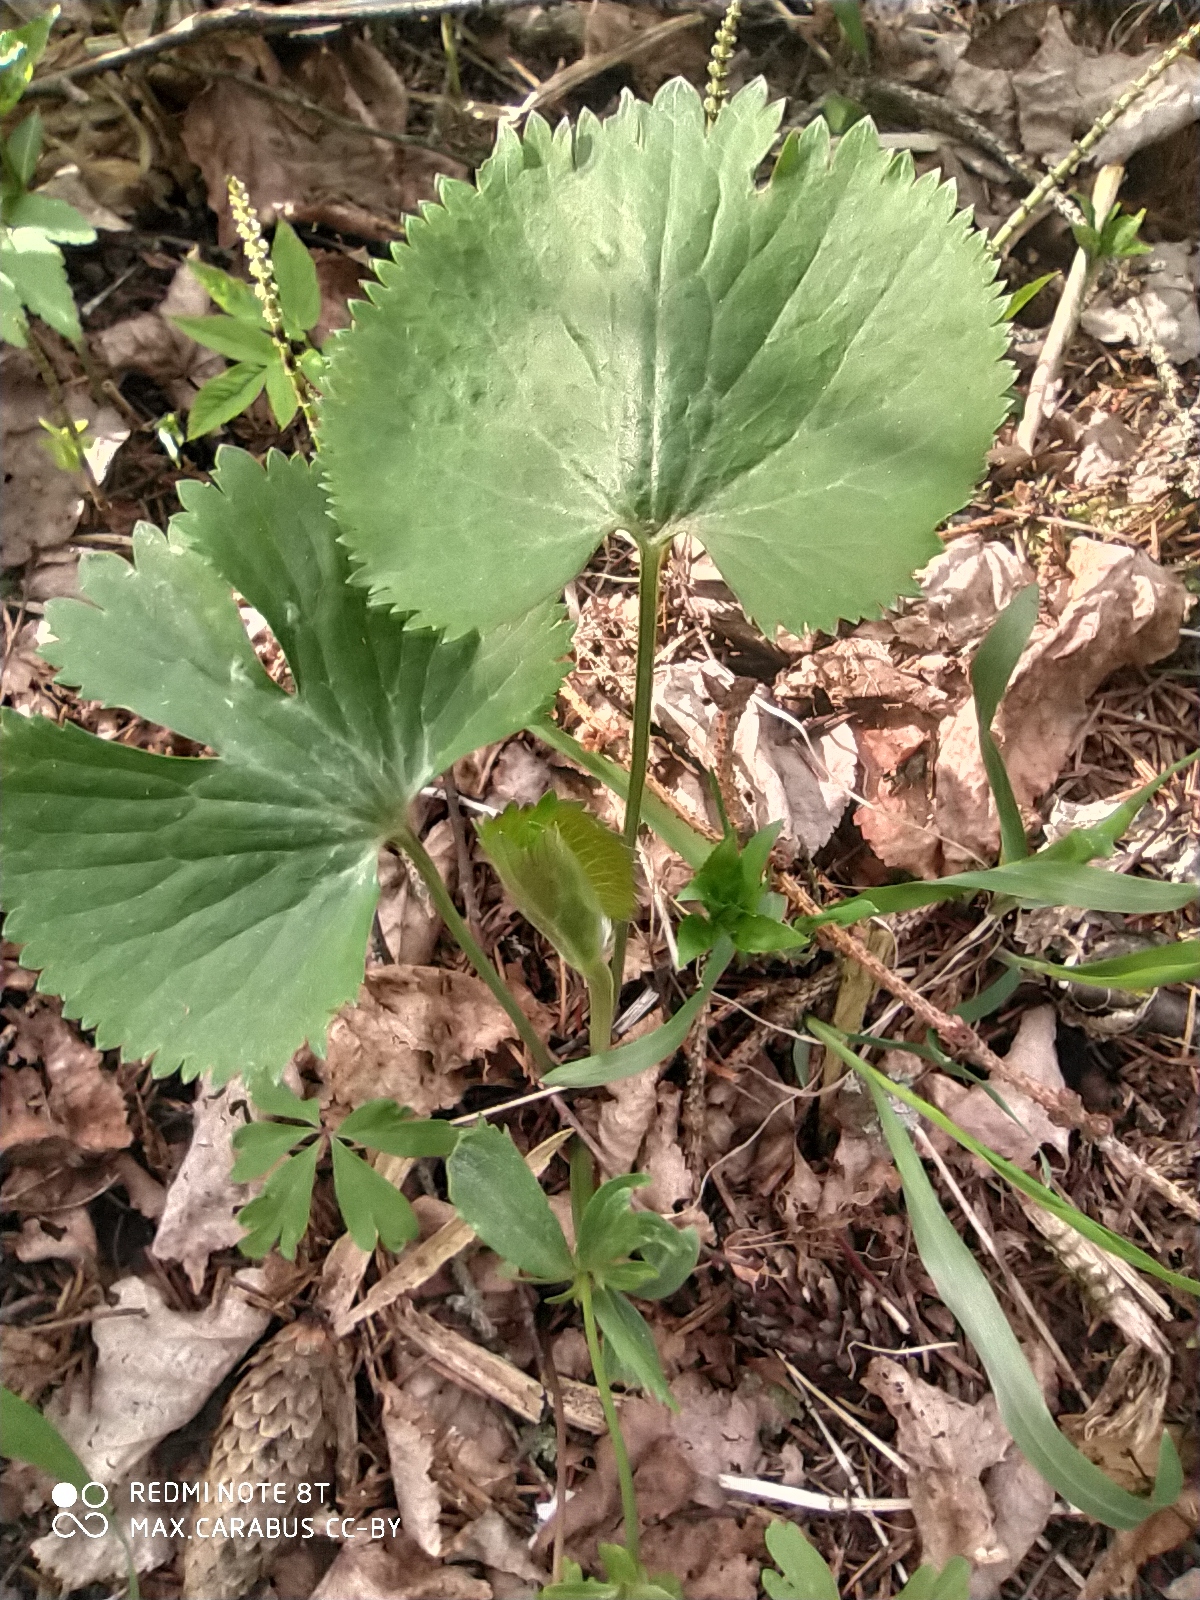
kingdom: Plantae
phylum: Tracheophyta
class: Magnoliopsida
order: Ranunculales
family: Ranunculaceae
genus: Ranunculus
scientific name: Ranunculus cassubicus
